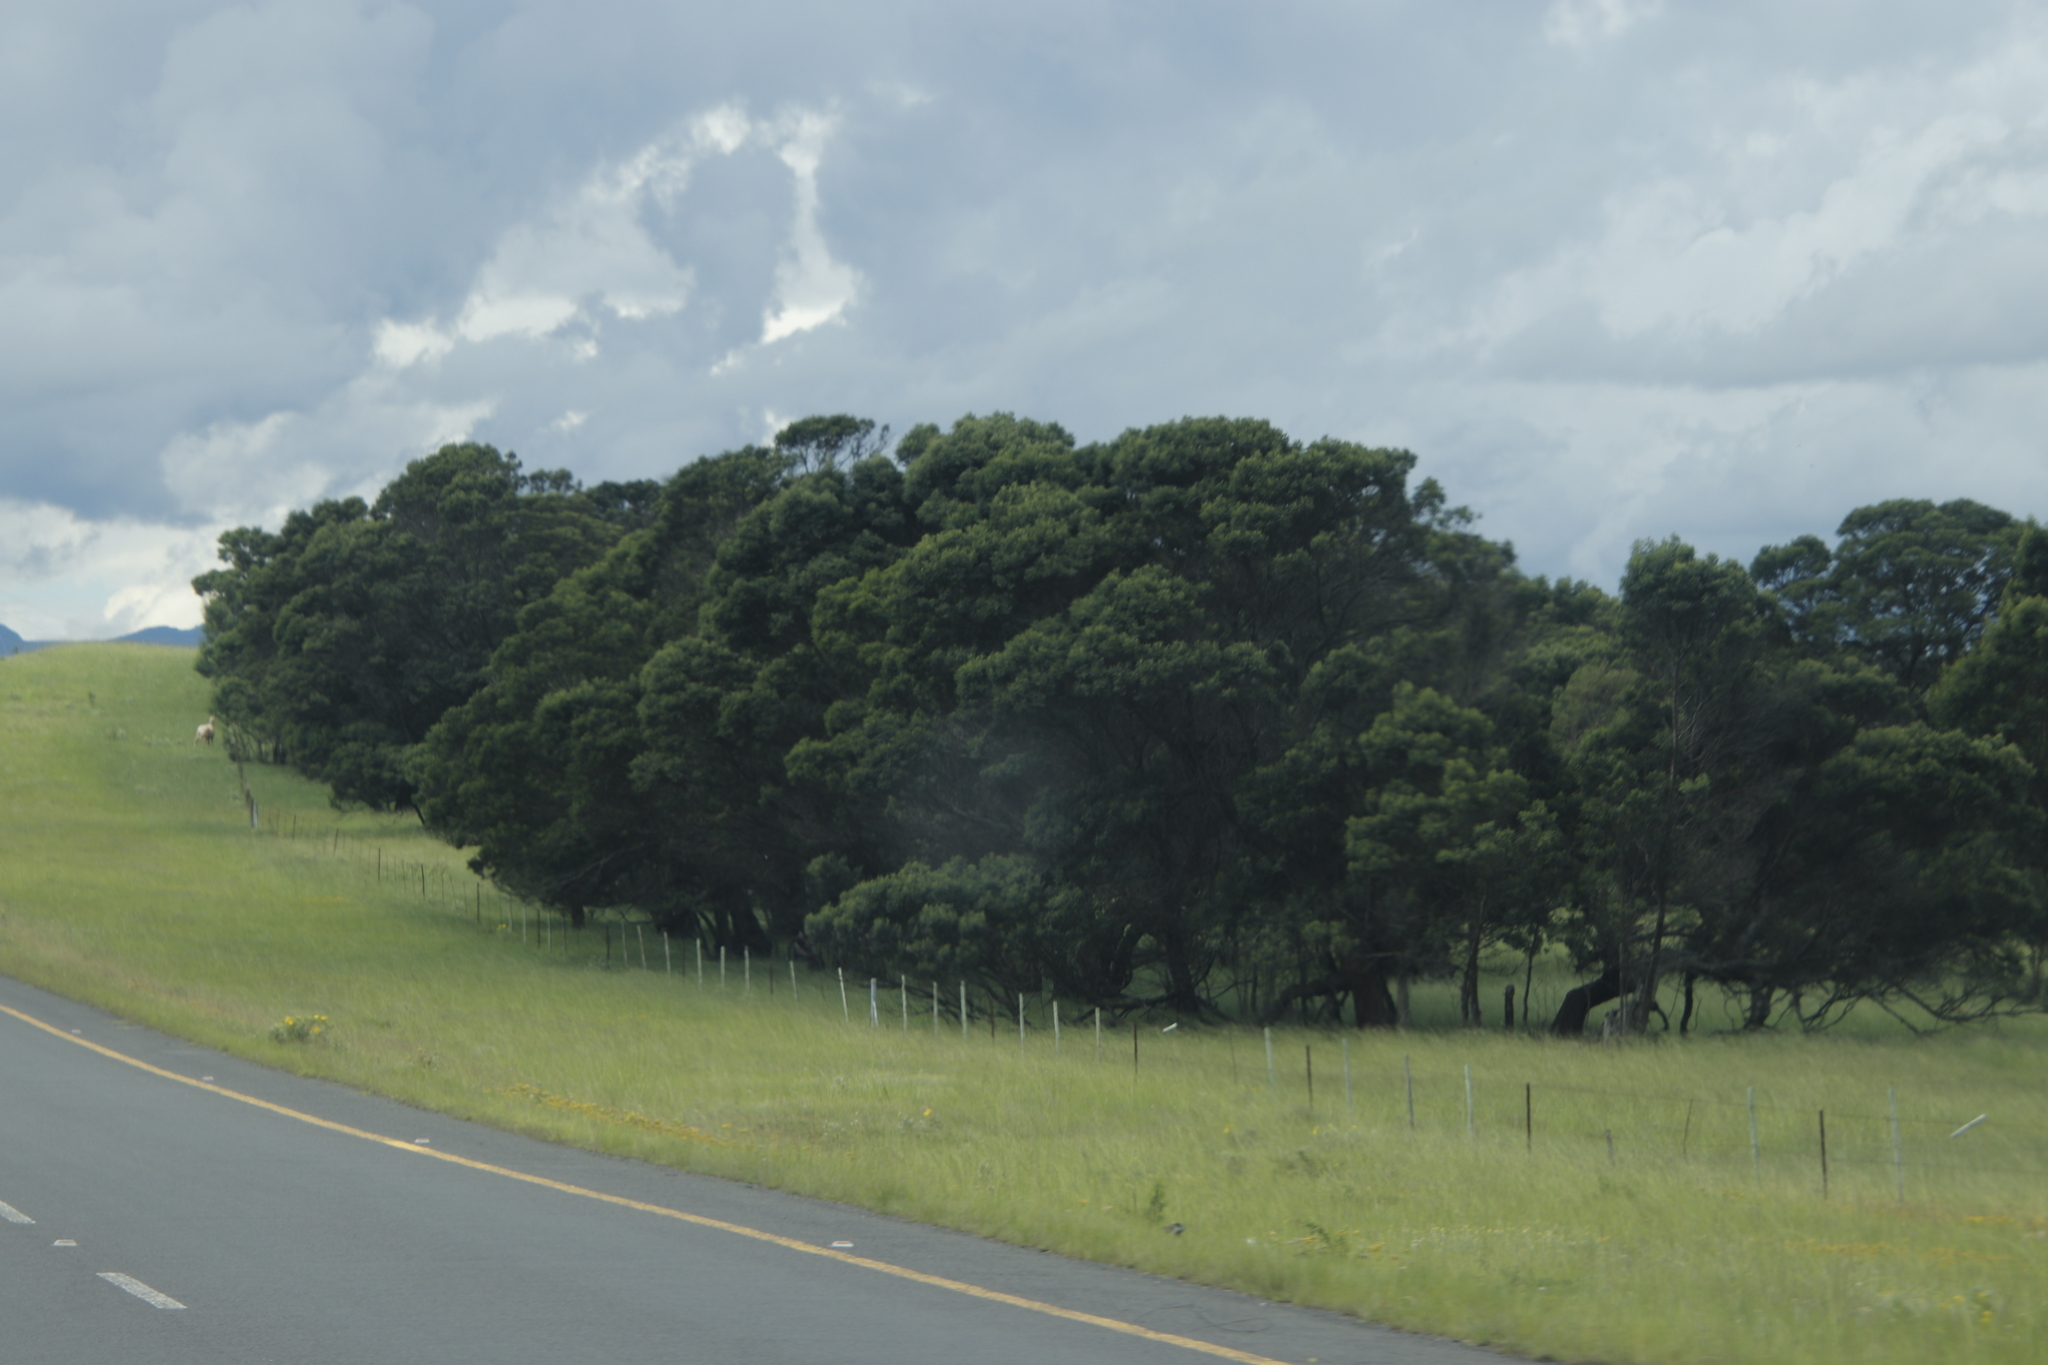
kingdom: Plantae
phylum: Tracheophyta
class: Magnoliopsida
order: Fabales
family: Fabaceae
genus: Acacia
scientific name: Acacia mearnsii
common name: Black wattle
